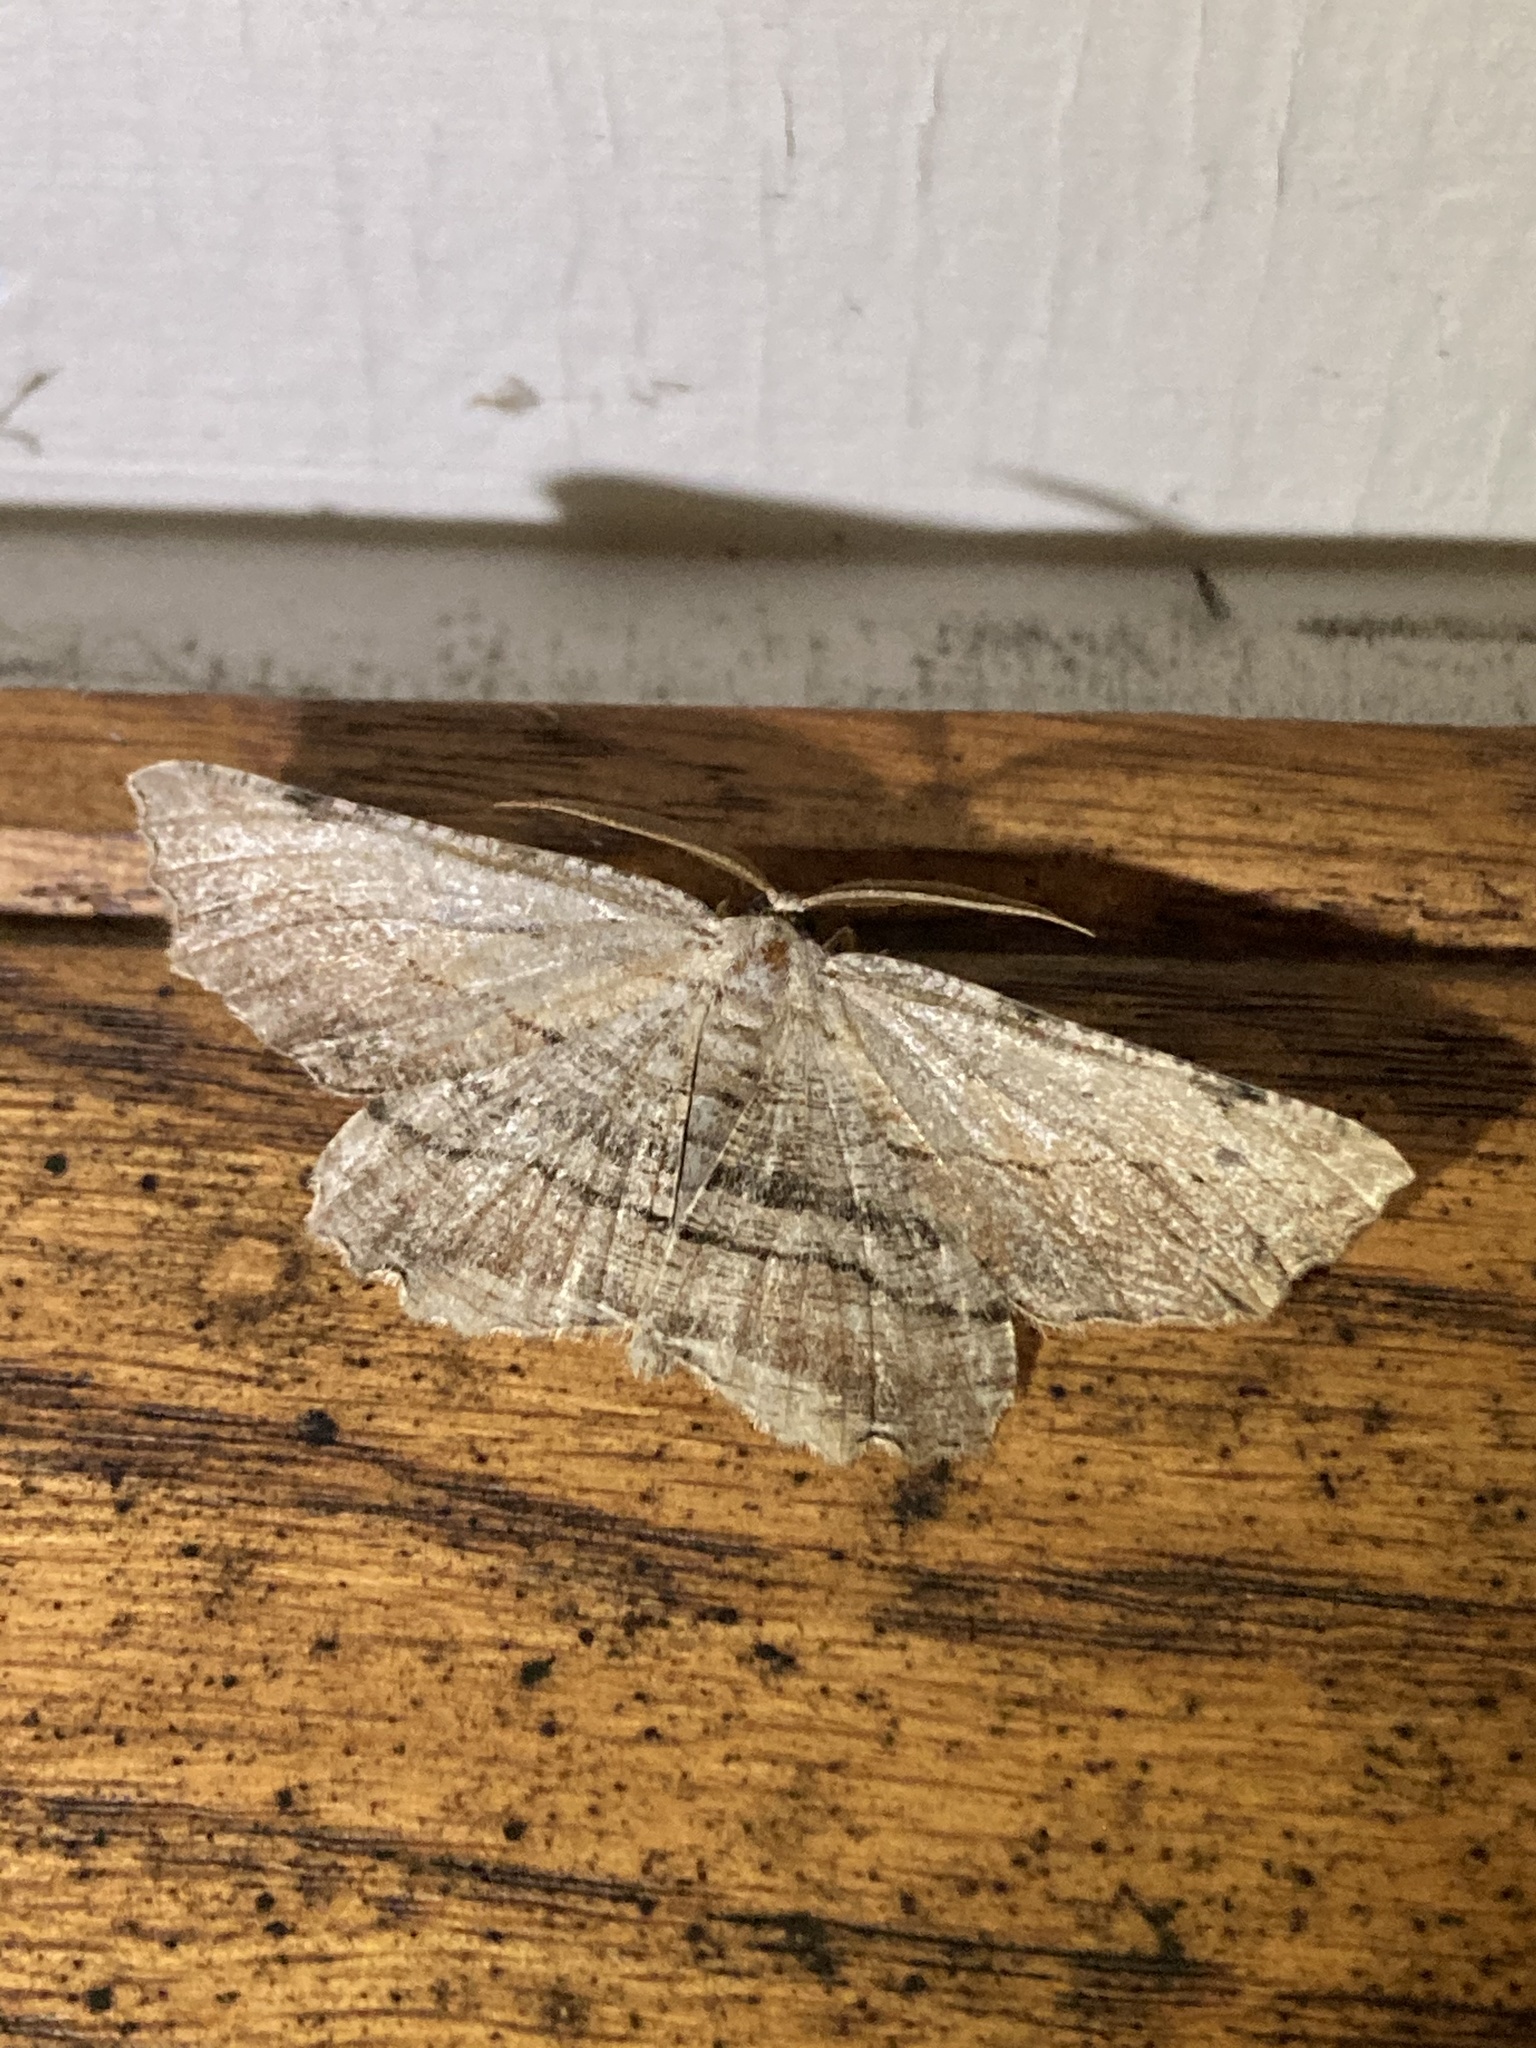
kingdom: Animalia
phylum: Arthropoda
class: Insecta
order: Lepidoptera
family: Geometridae
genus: Lytrosis
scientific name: Lytrosis unitaria
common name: Common lytrosis
